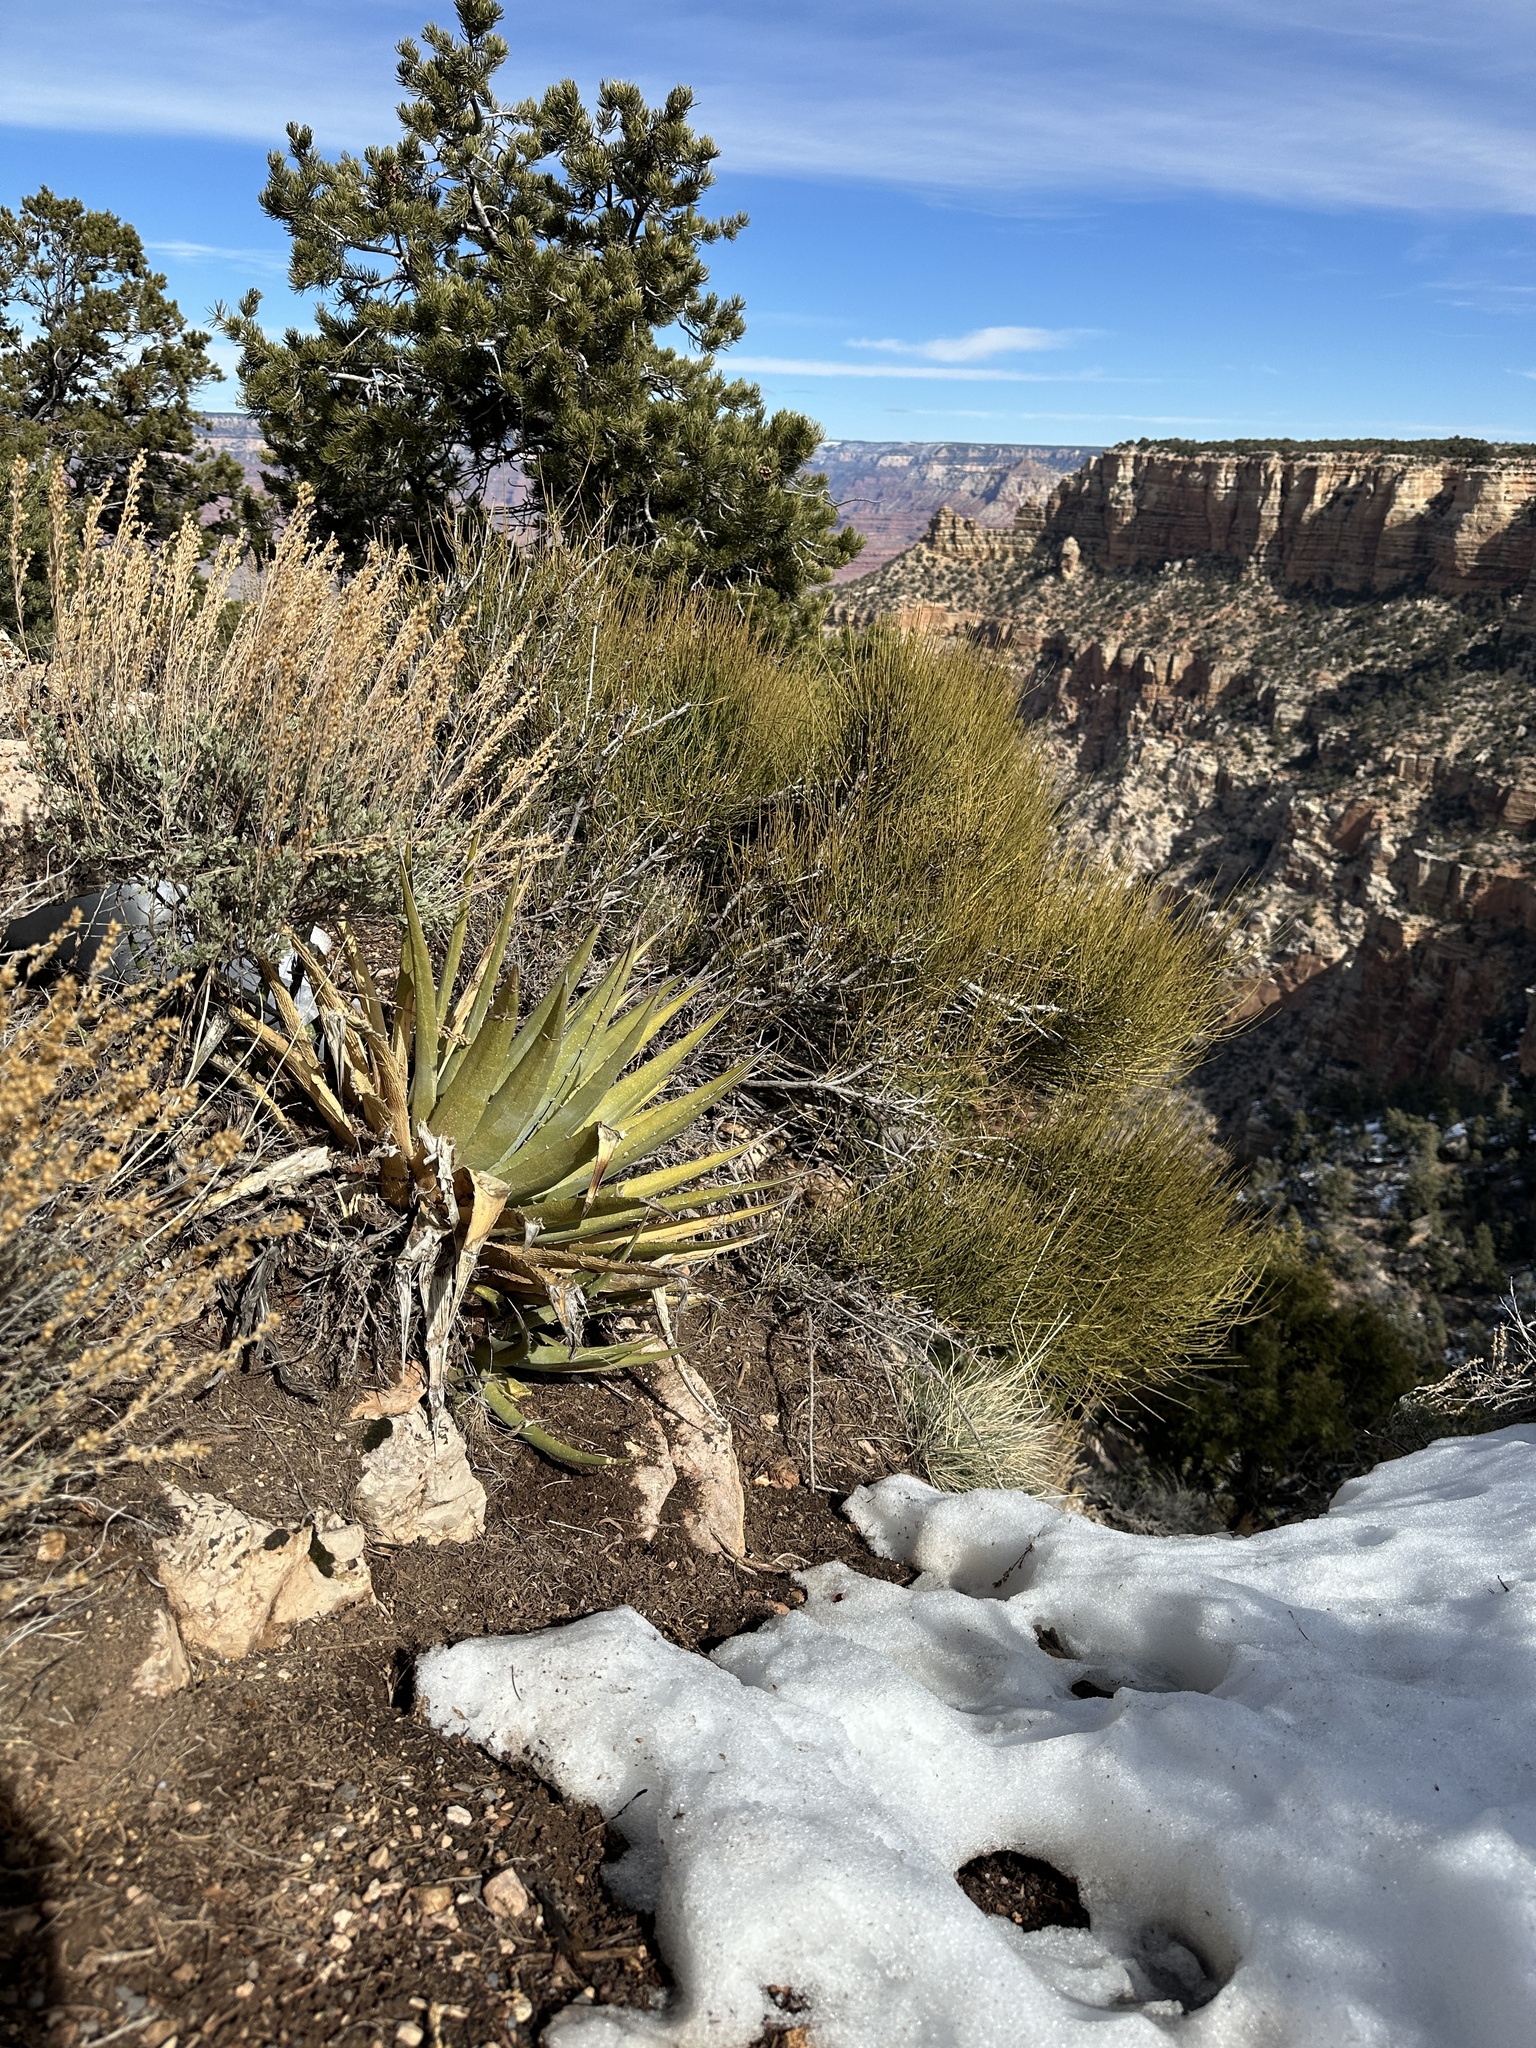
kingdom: Plantae
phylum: Tracheophyta
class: Liliopsida
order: Asparagales
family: Asparagaceae
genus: Agave
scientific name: Agave utahensis
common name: Utah agave
